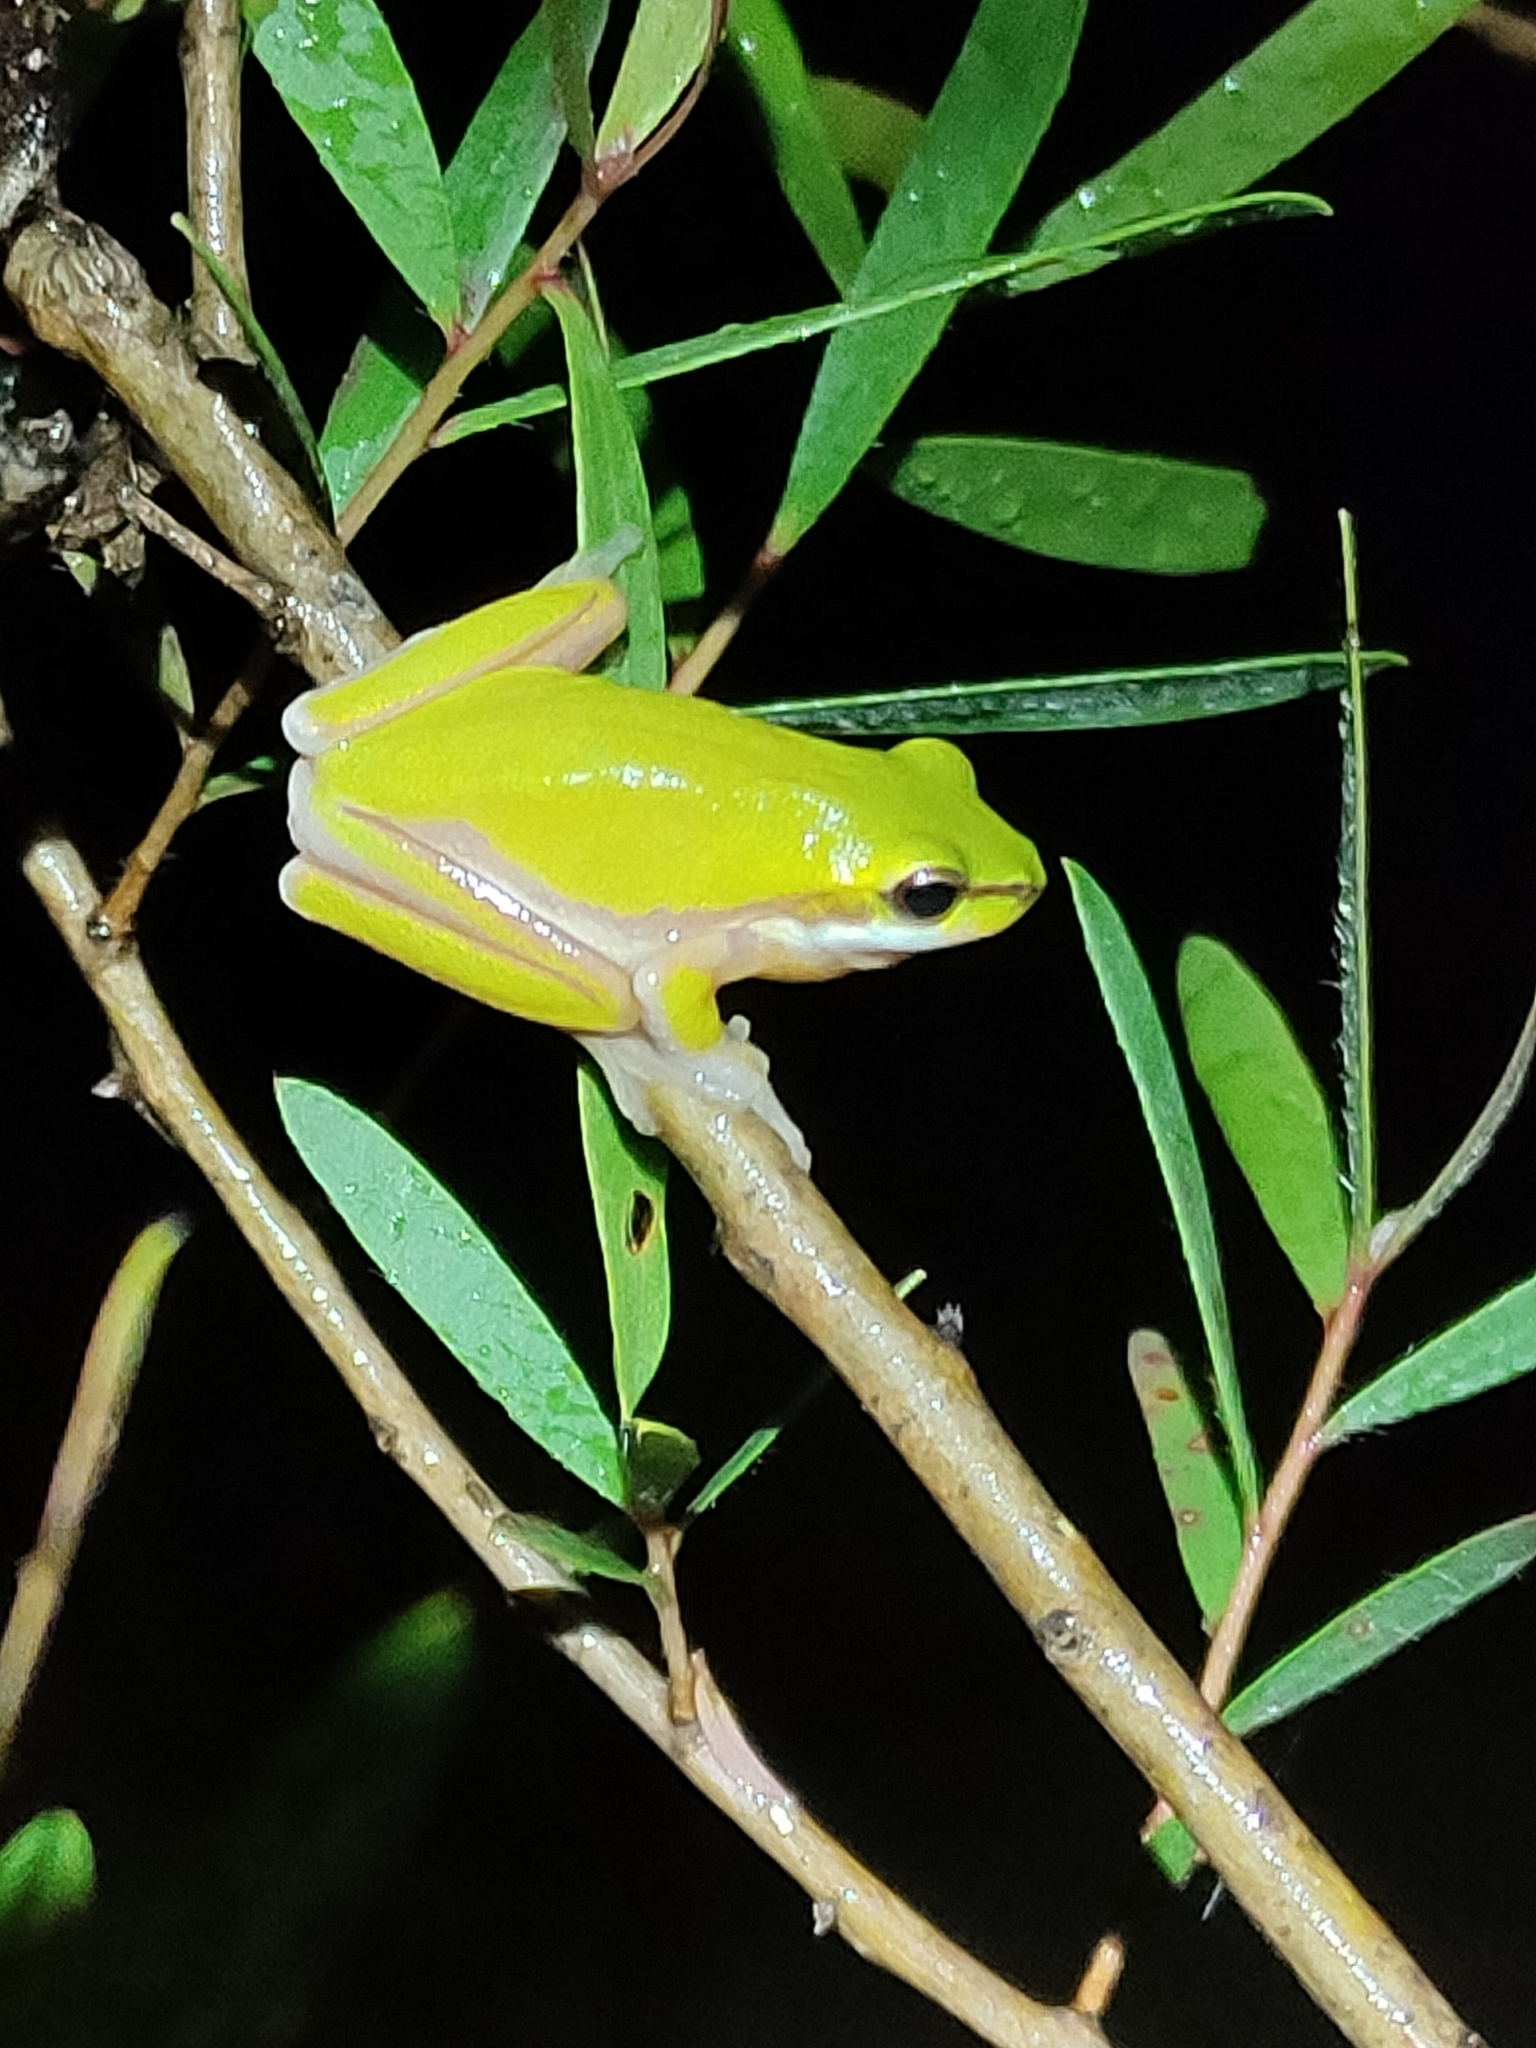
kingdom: Animalia
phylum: Chordata
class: Amphibia
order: Anura
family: Pelodryadidae
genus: Litoria
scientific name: Litoria fallax
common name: Eastern dwarf treefrog
